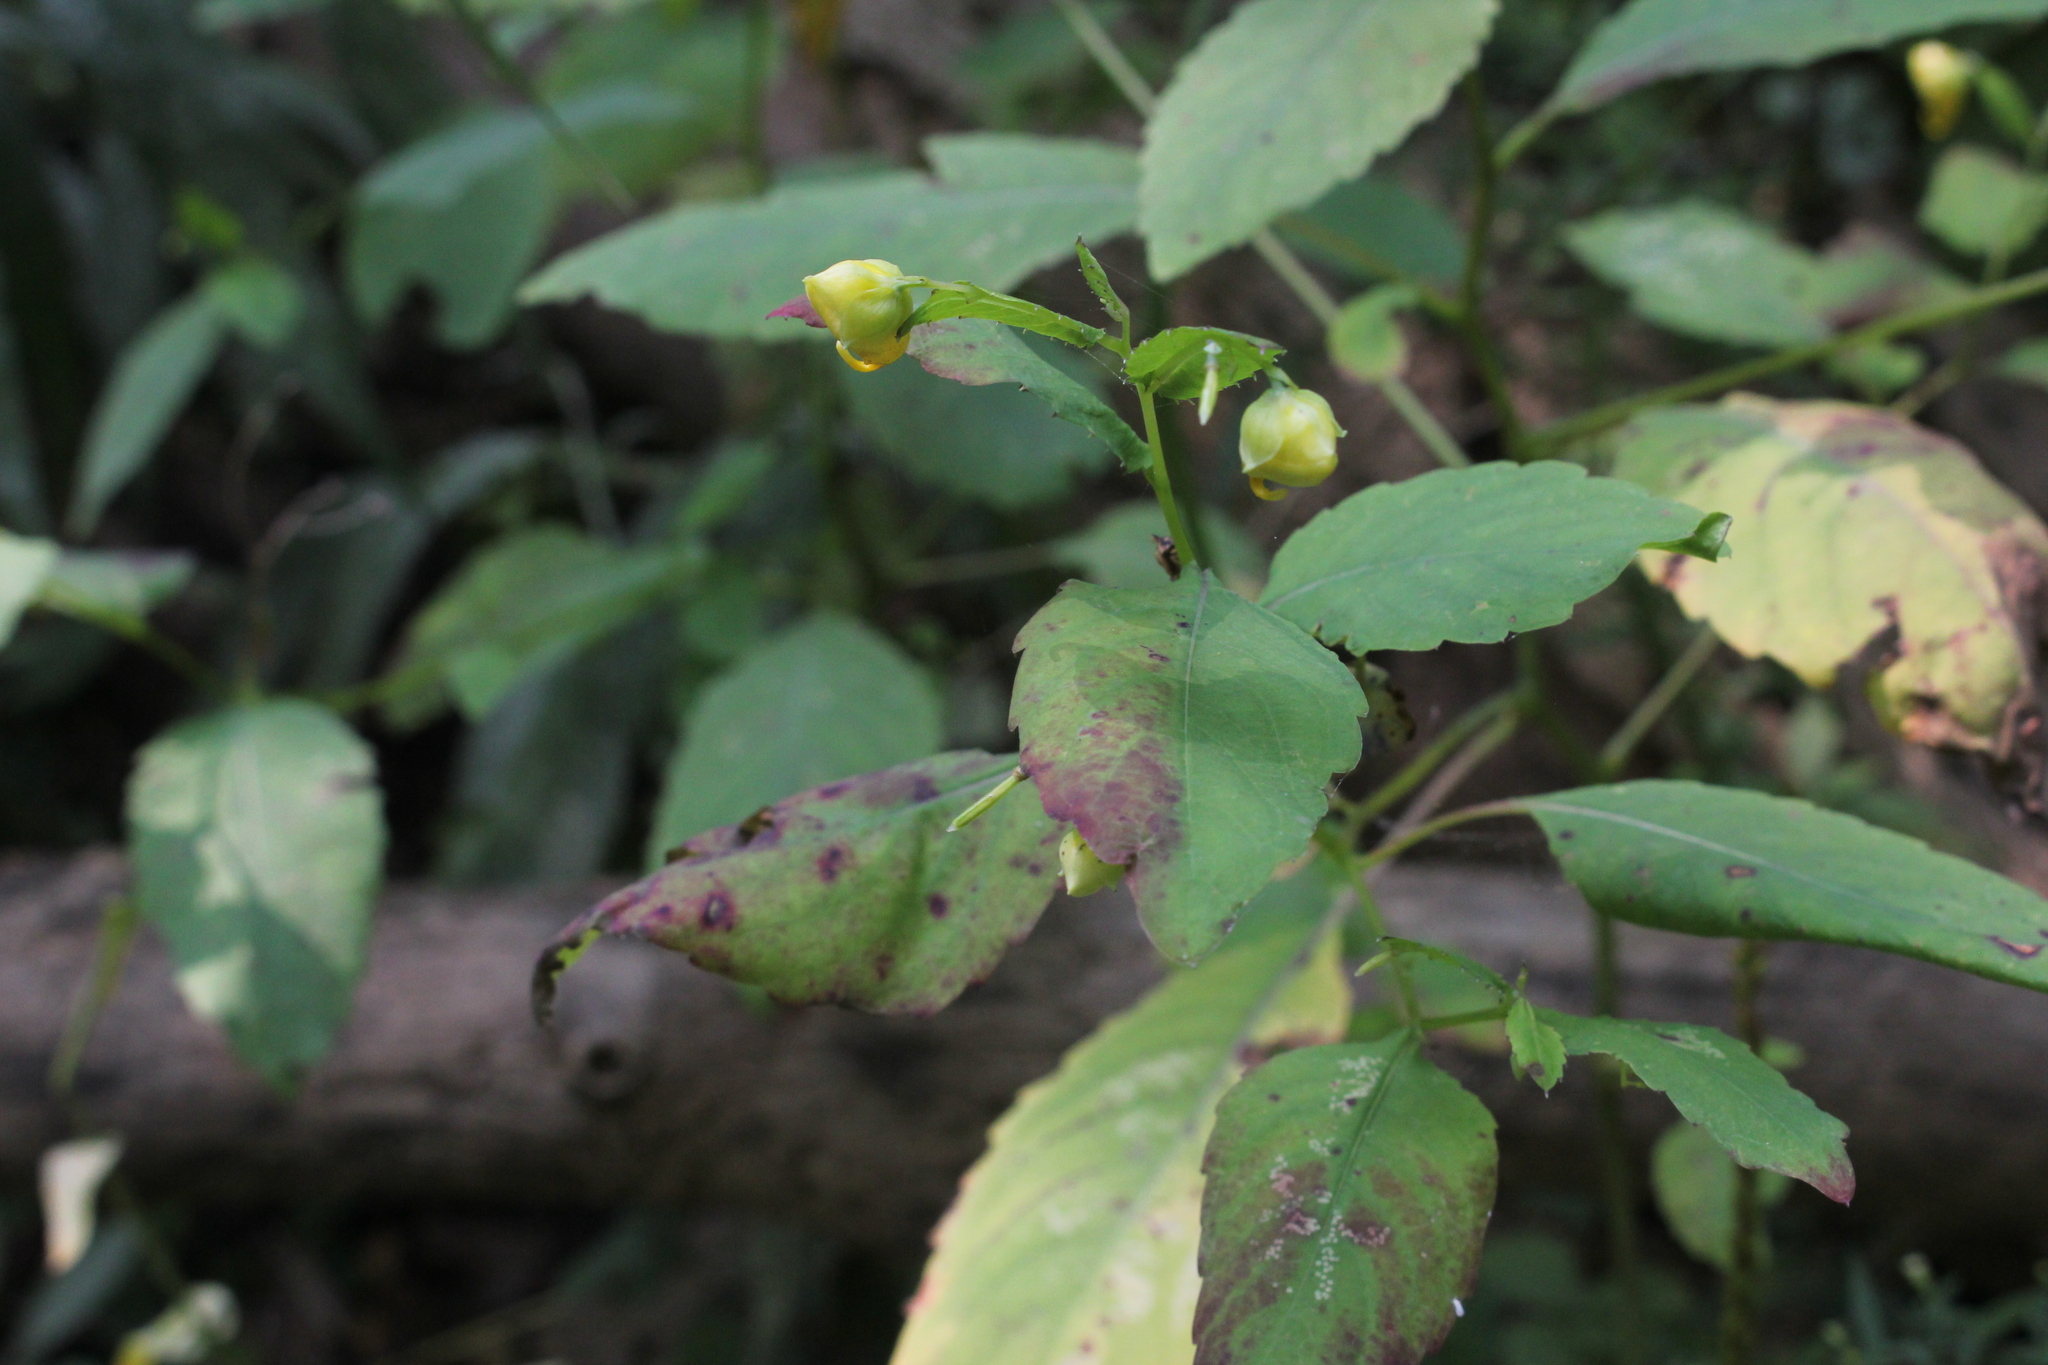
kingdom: Plantae
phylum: Tracheophyta
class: Magnoliopsida
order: Ericales
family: Balsaminaceae
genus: Impatiens
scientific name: Impatiens pallida
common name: Pale snapweed
